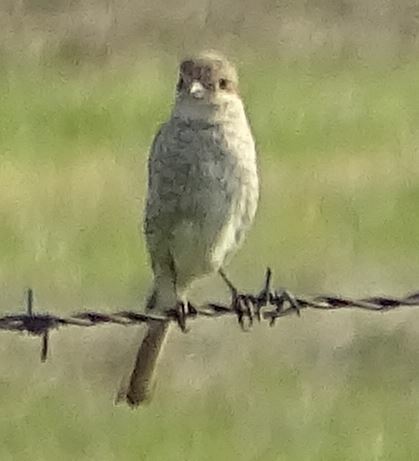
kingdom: Animalia
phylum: Chordata
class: Aves
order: Passeriformes
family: Laniidae
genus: Lanius
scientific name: Lanius collurio
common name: Red-backed shrike
